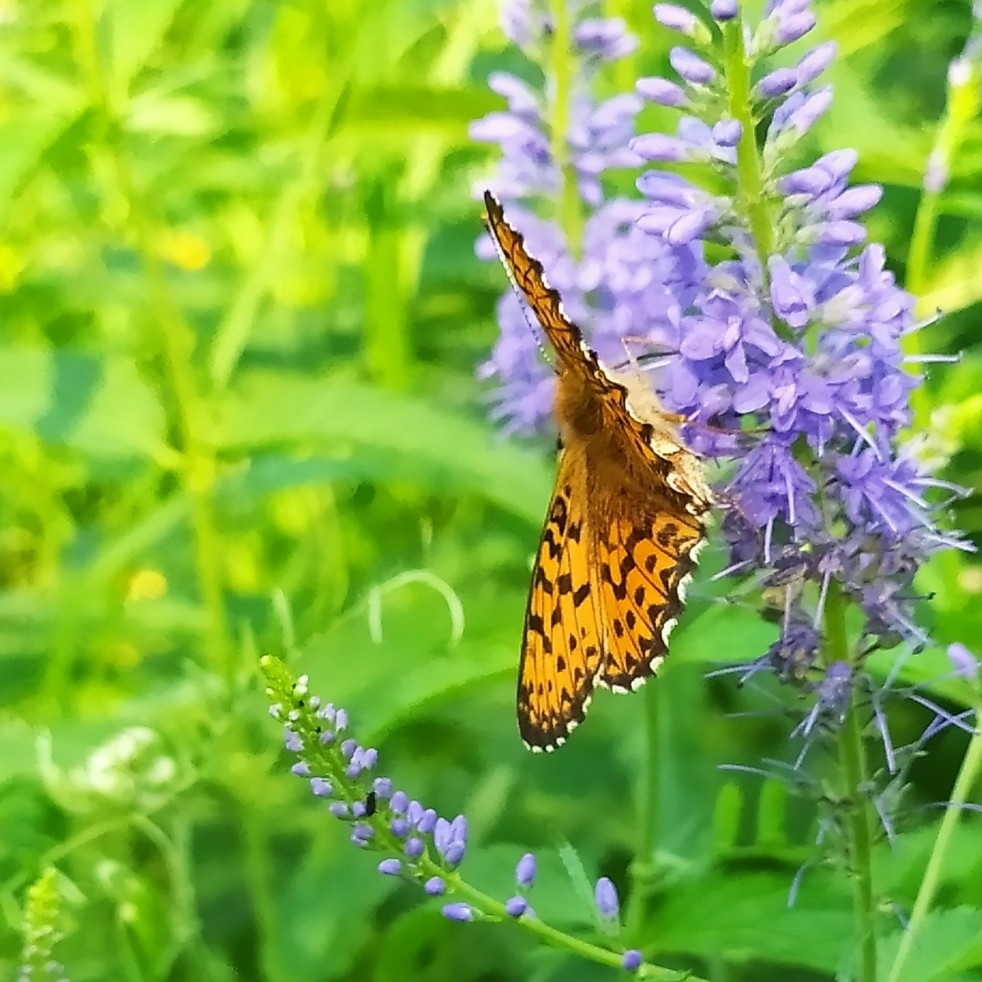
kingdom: Animalia
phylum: Arthropoda
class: Insecta
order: Lepidoptera
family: Nymphalidae
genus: Boloria
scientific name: Boloria titania
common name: Titania's fritillary
